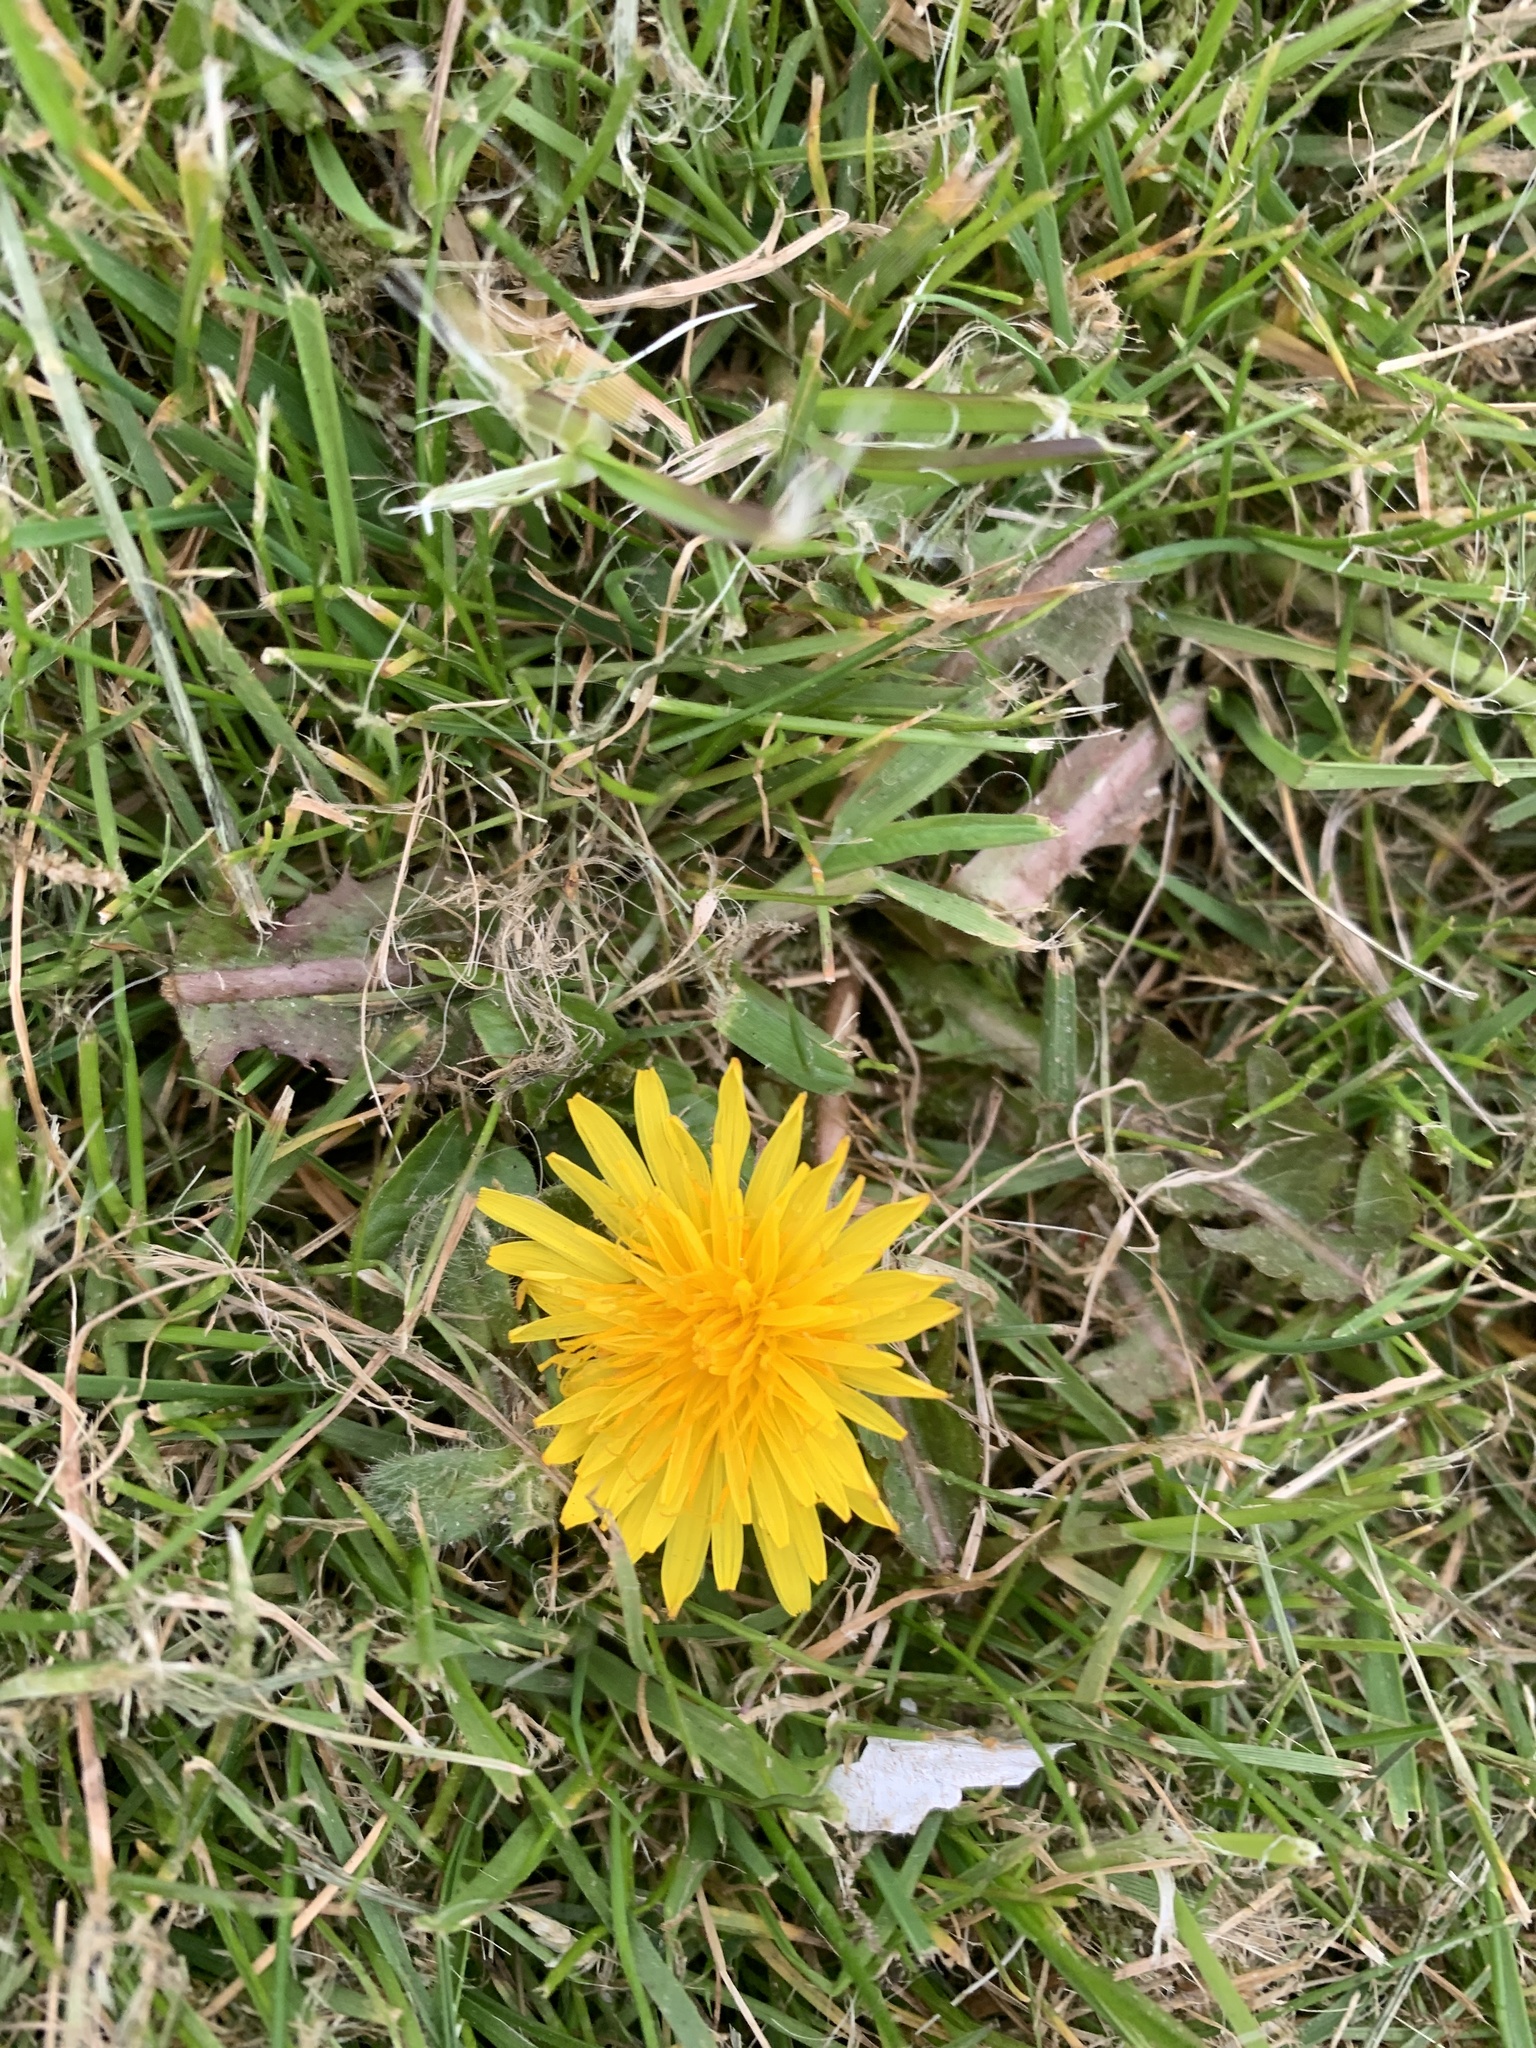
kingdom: Plantae
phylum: Tracheophyta
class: Magnoliopsida
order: Asterales
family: Asteraceae
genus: Taraxacum
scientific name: Taraxacum officinale
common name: Common dandelion
